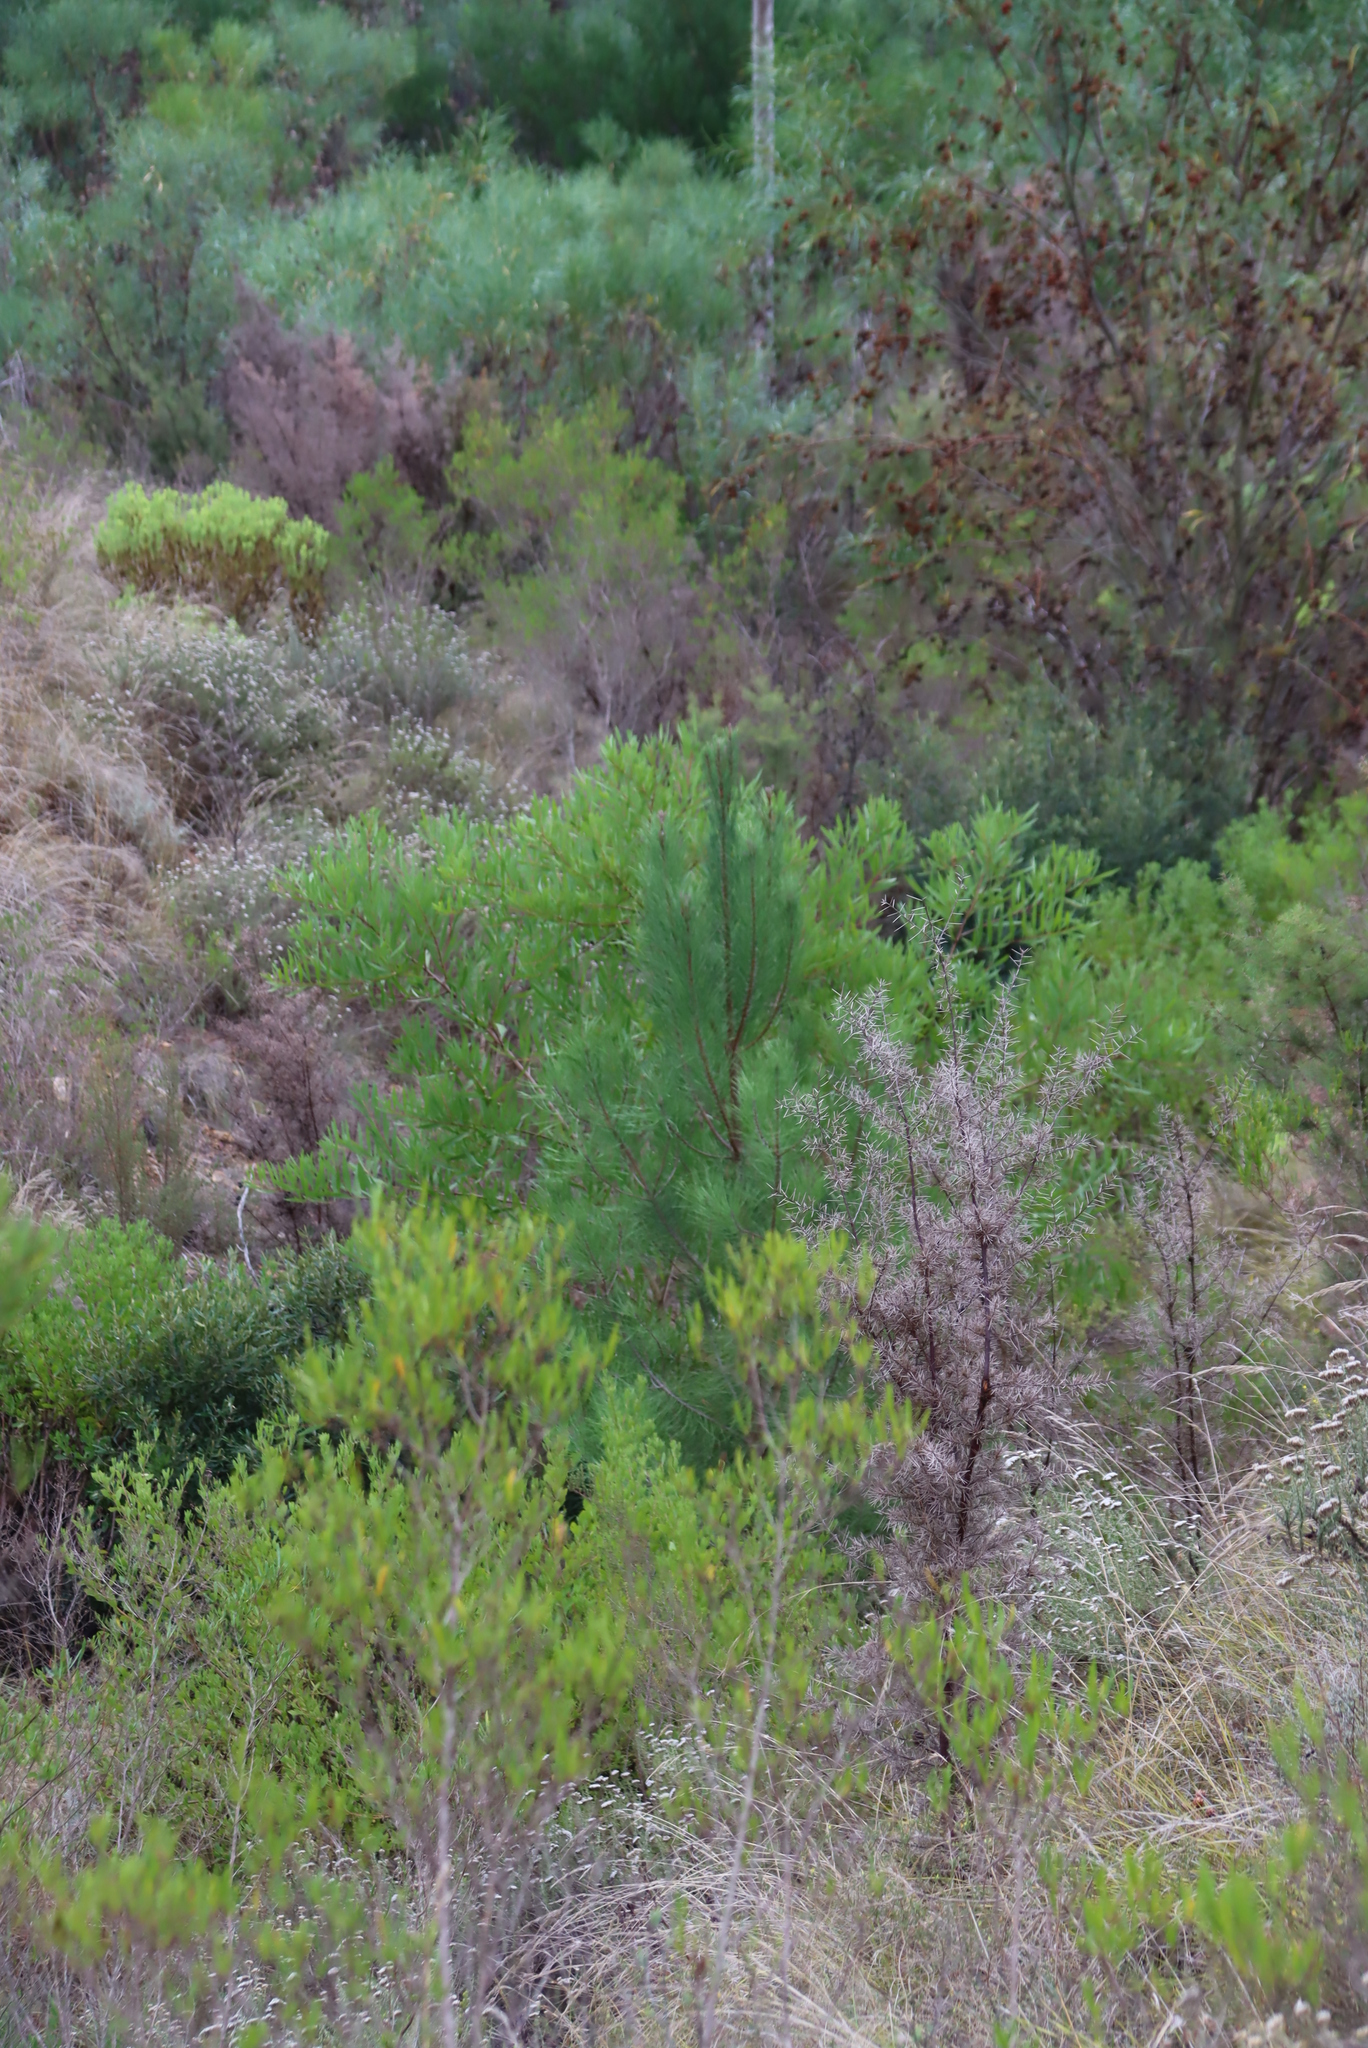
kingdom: Plantae
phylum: Tracheophyta
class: Pinopsida
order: Pinales
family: Pinaceae
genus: Pinus
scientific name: Pinus pinaster
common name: Maritime pine
